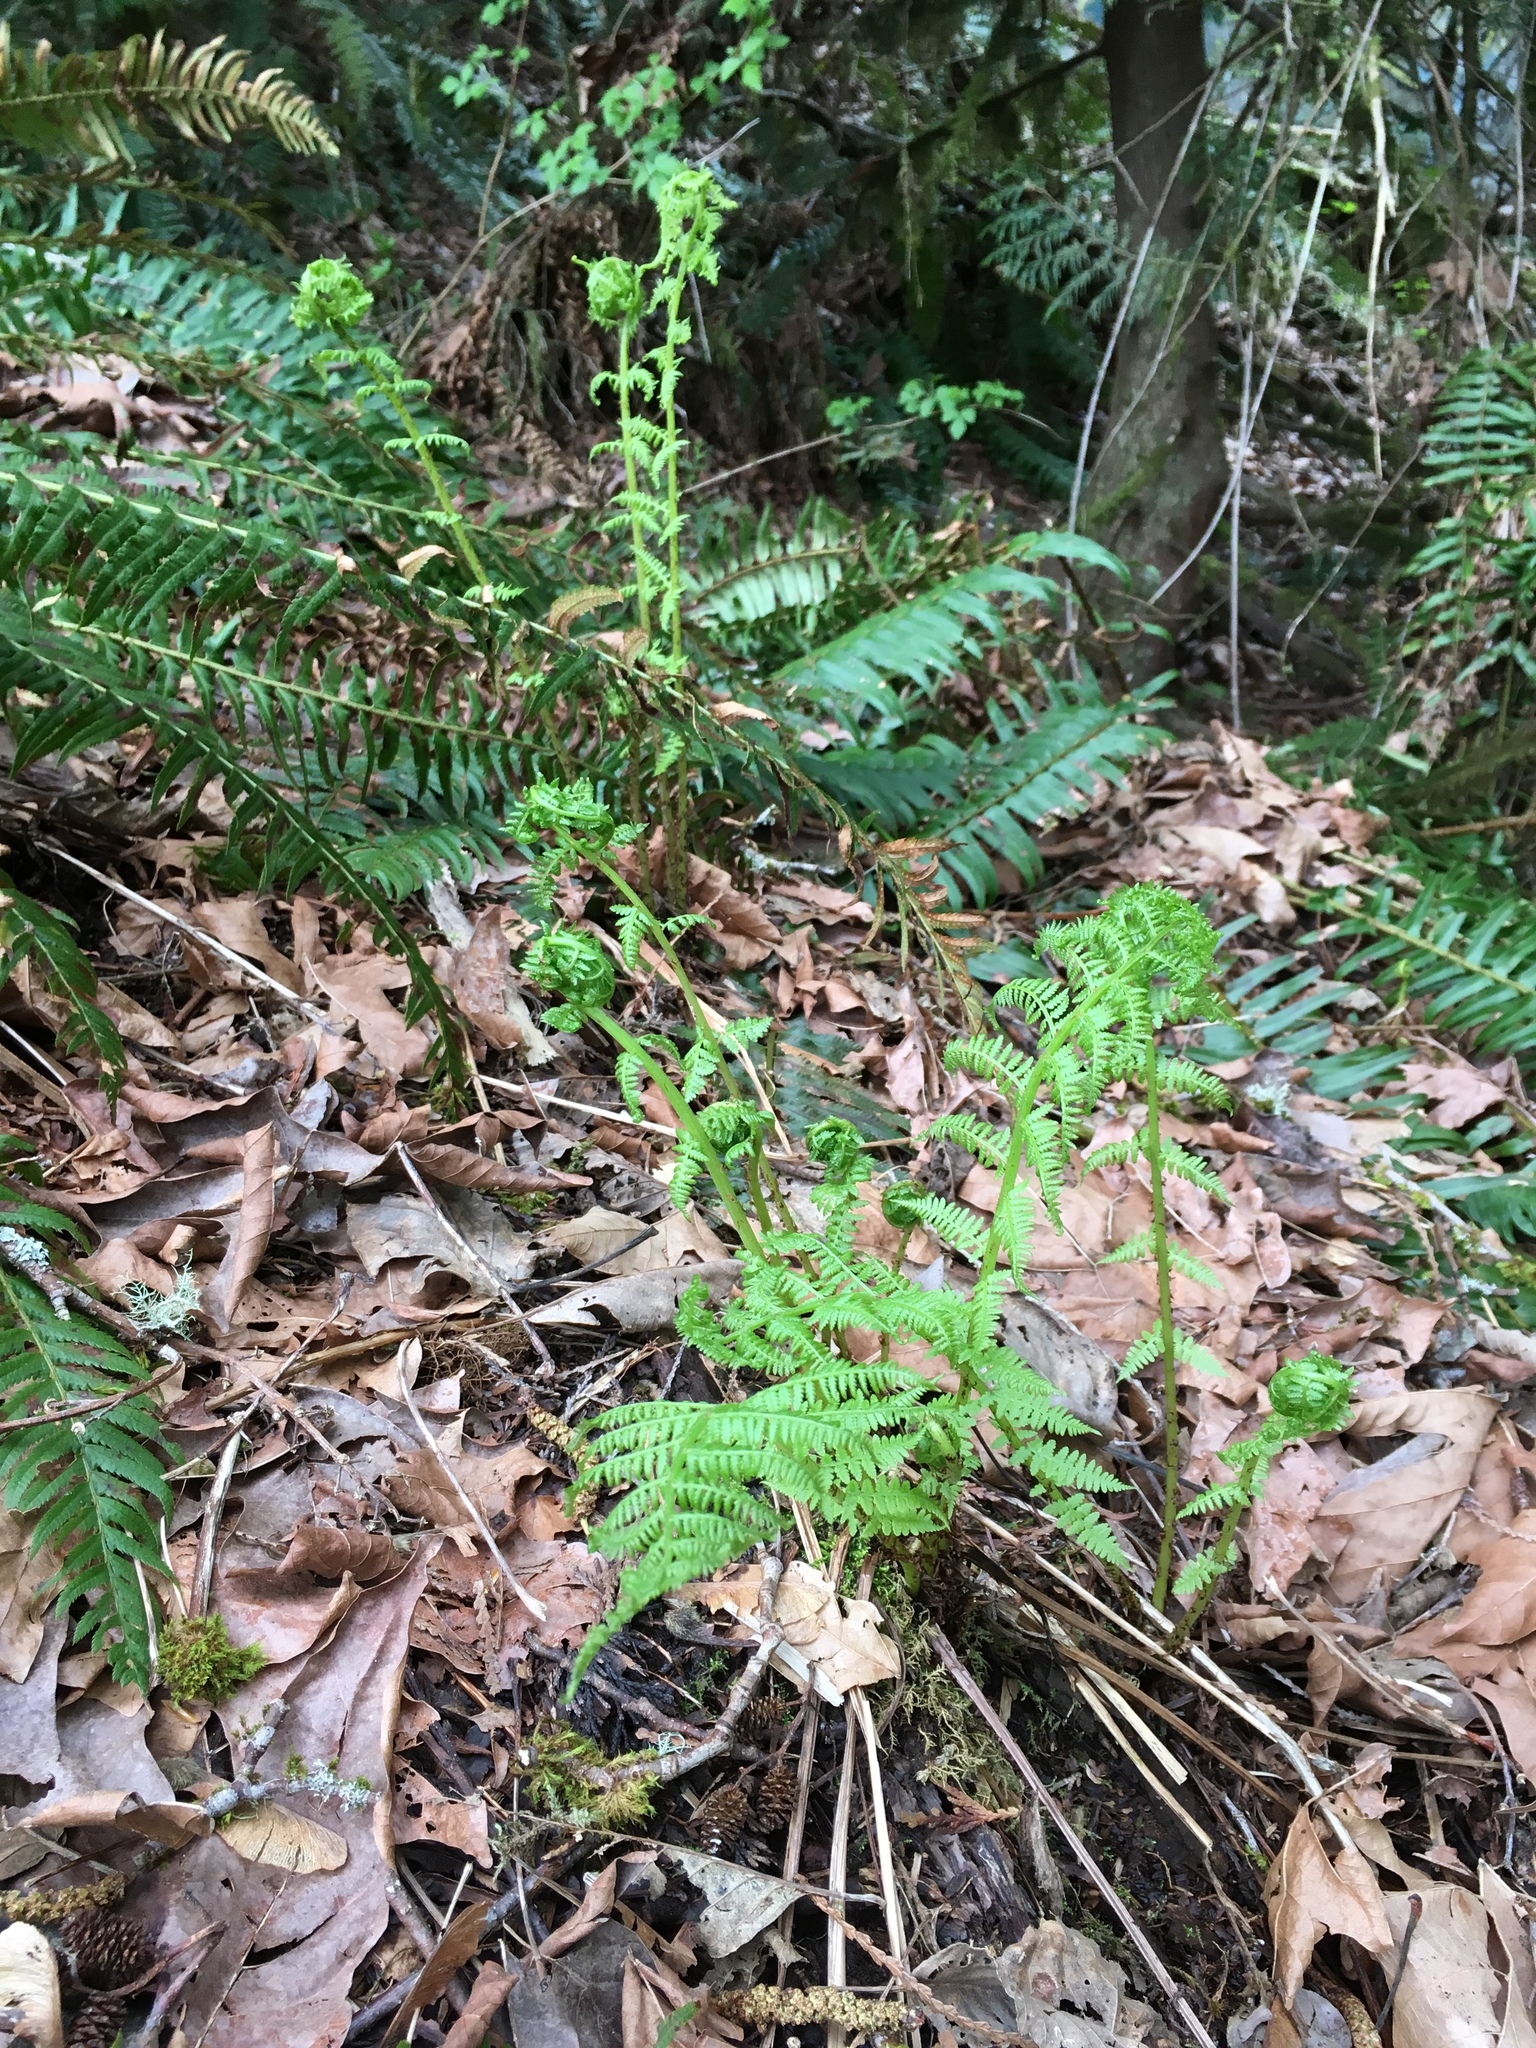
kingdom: Plantae
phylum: Tracheophyta
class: Polypodiopsida
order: Polypodiales
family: Athyriaceae
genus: Athyrium
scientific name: Athyrium filix-femina
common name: Lady fern
